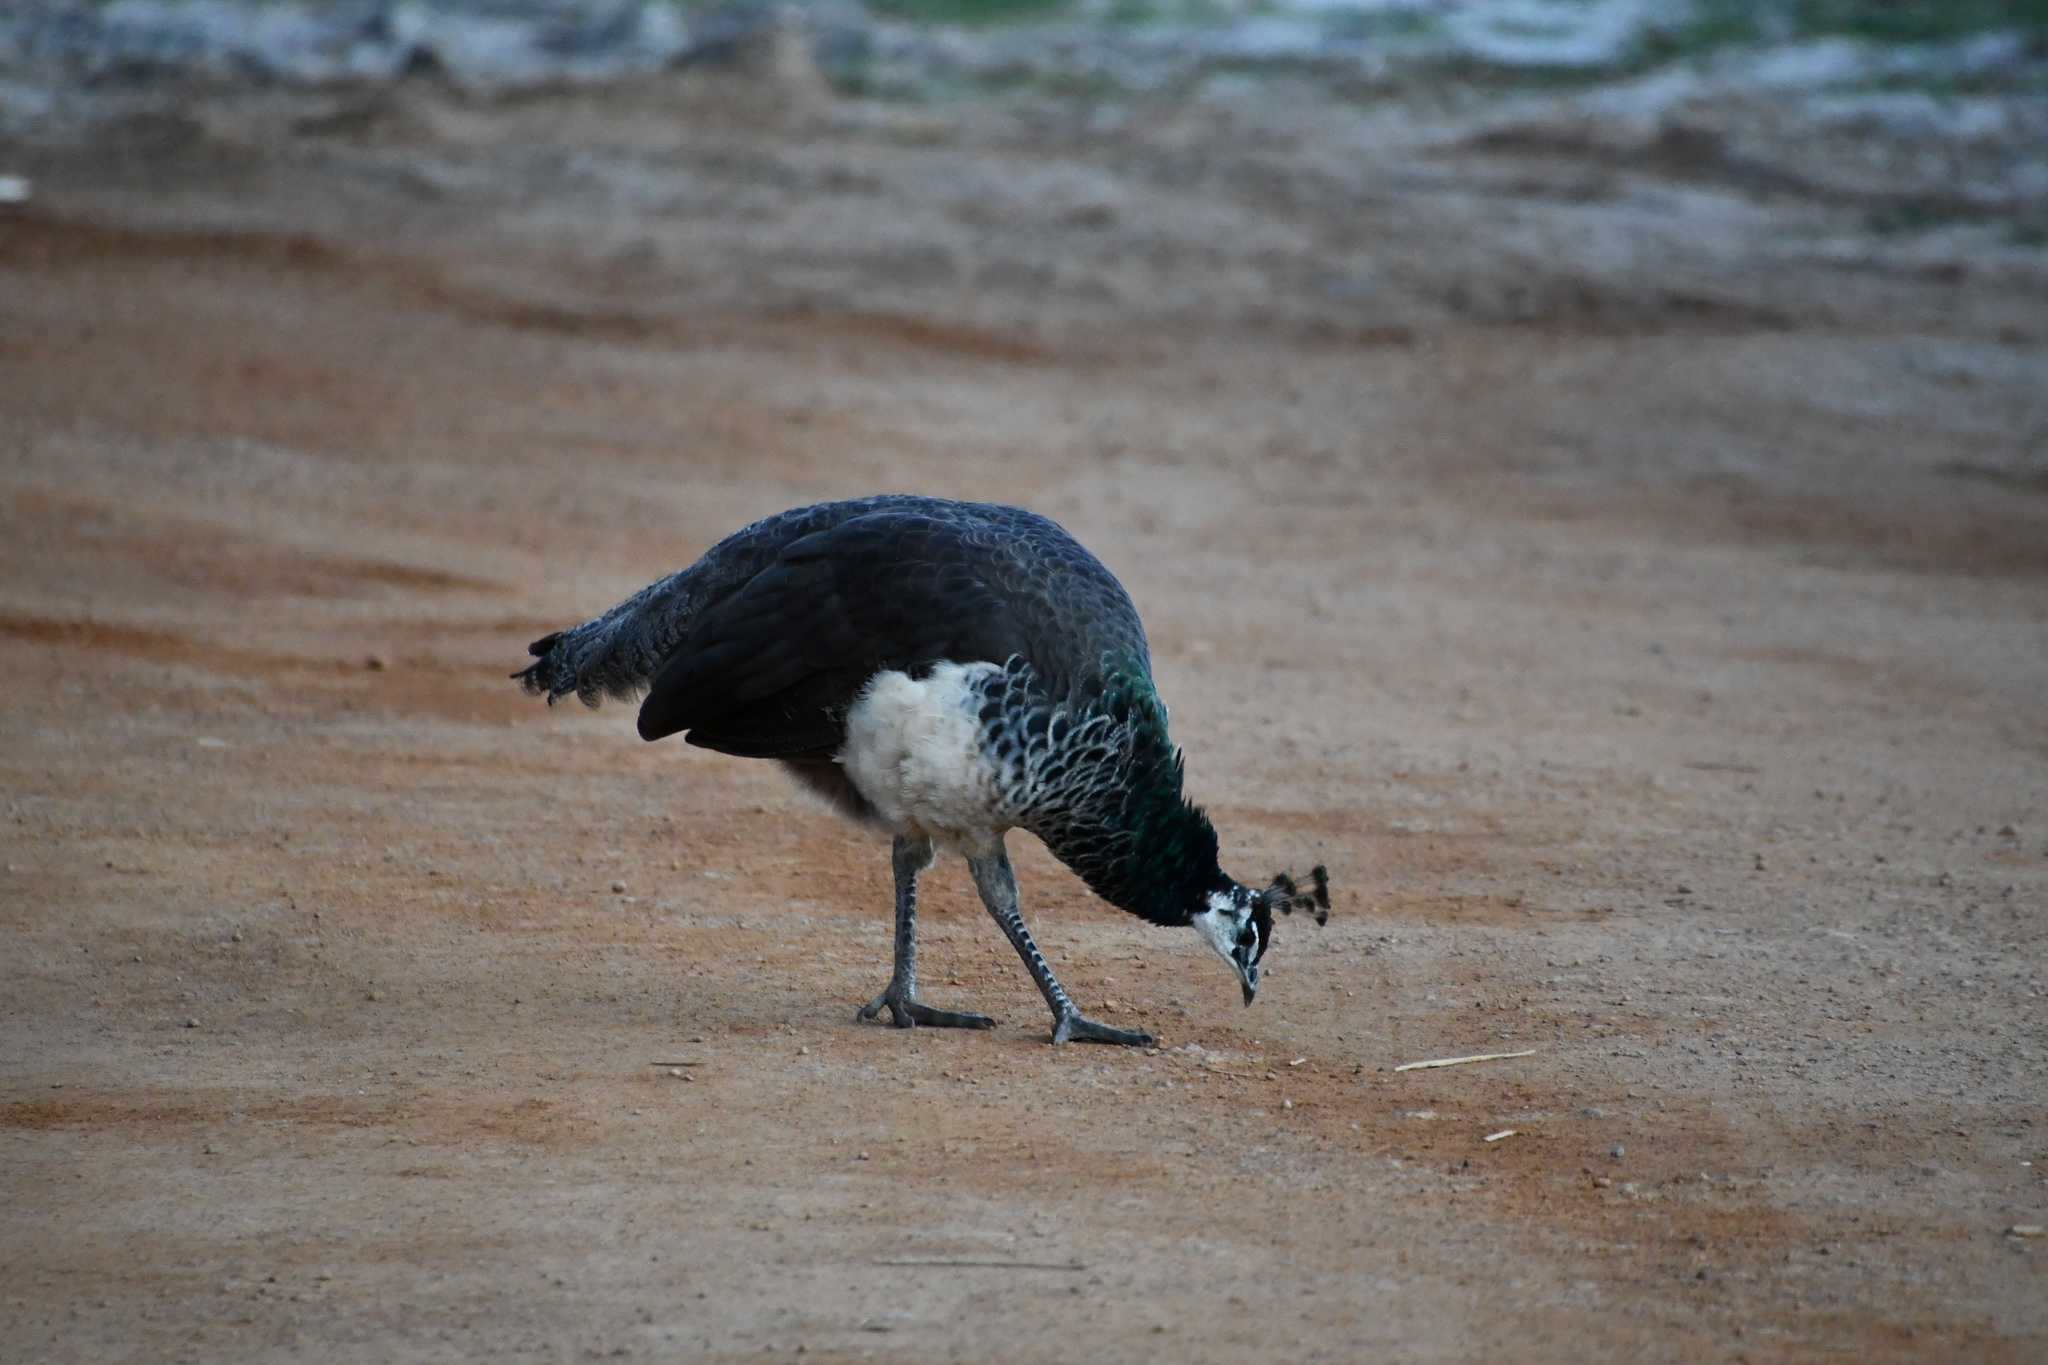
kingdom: Animalia
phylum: Chordata
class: Aves
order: Galliformes
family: Phasianidae
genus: Pavo
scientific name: Pavo cristatus
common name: Indian peafowl
